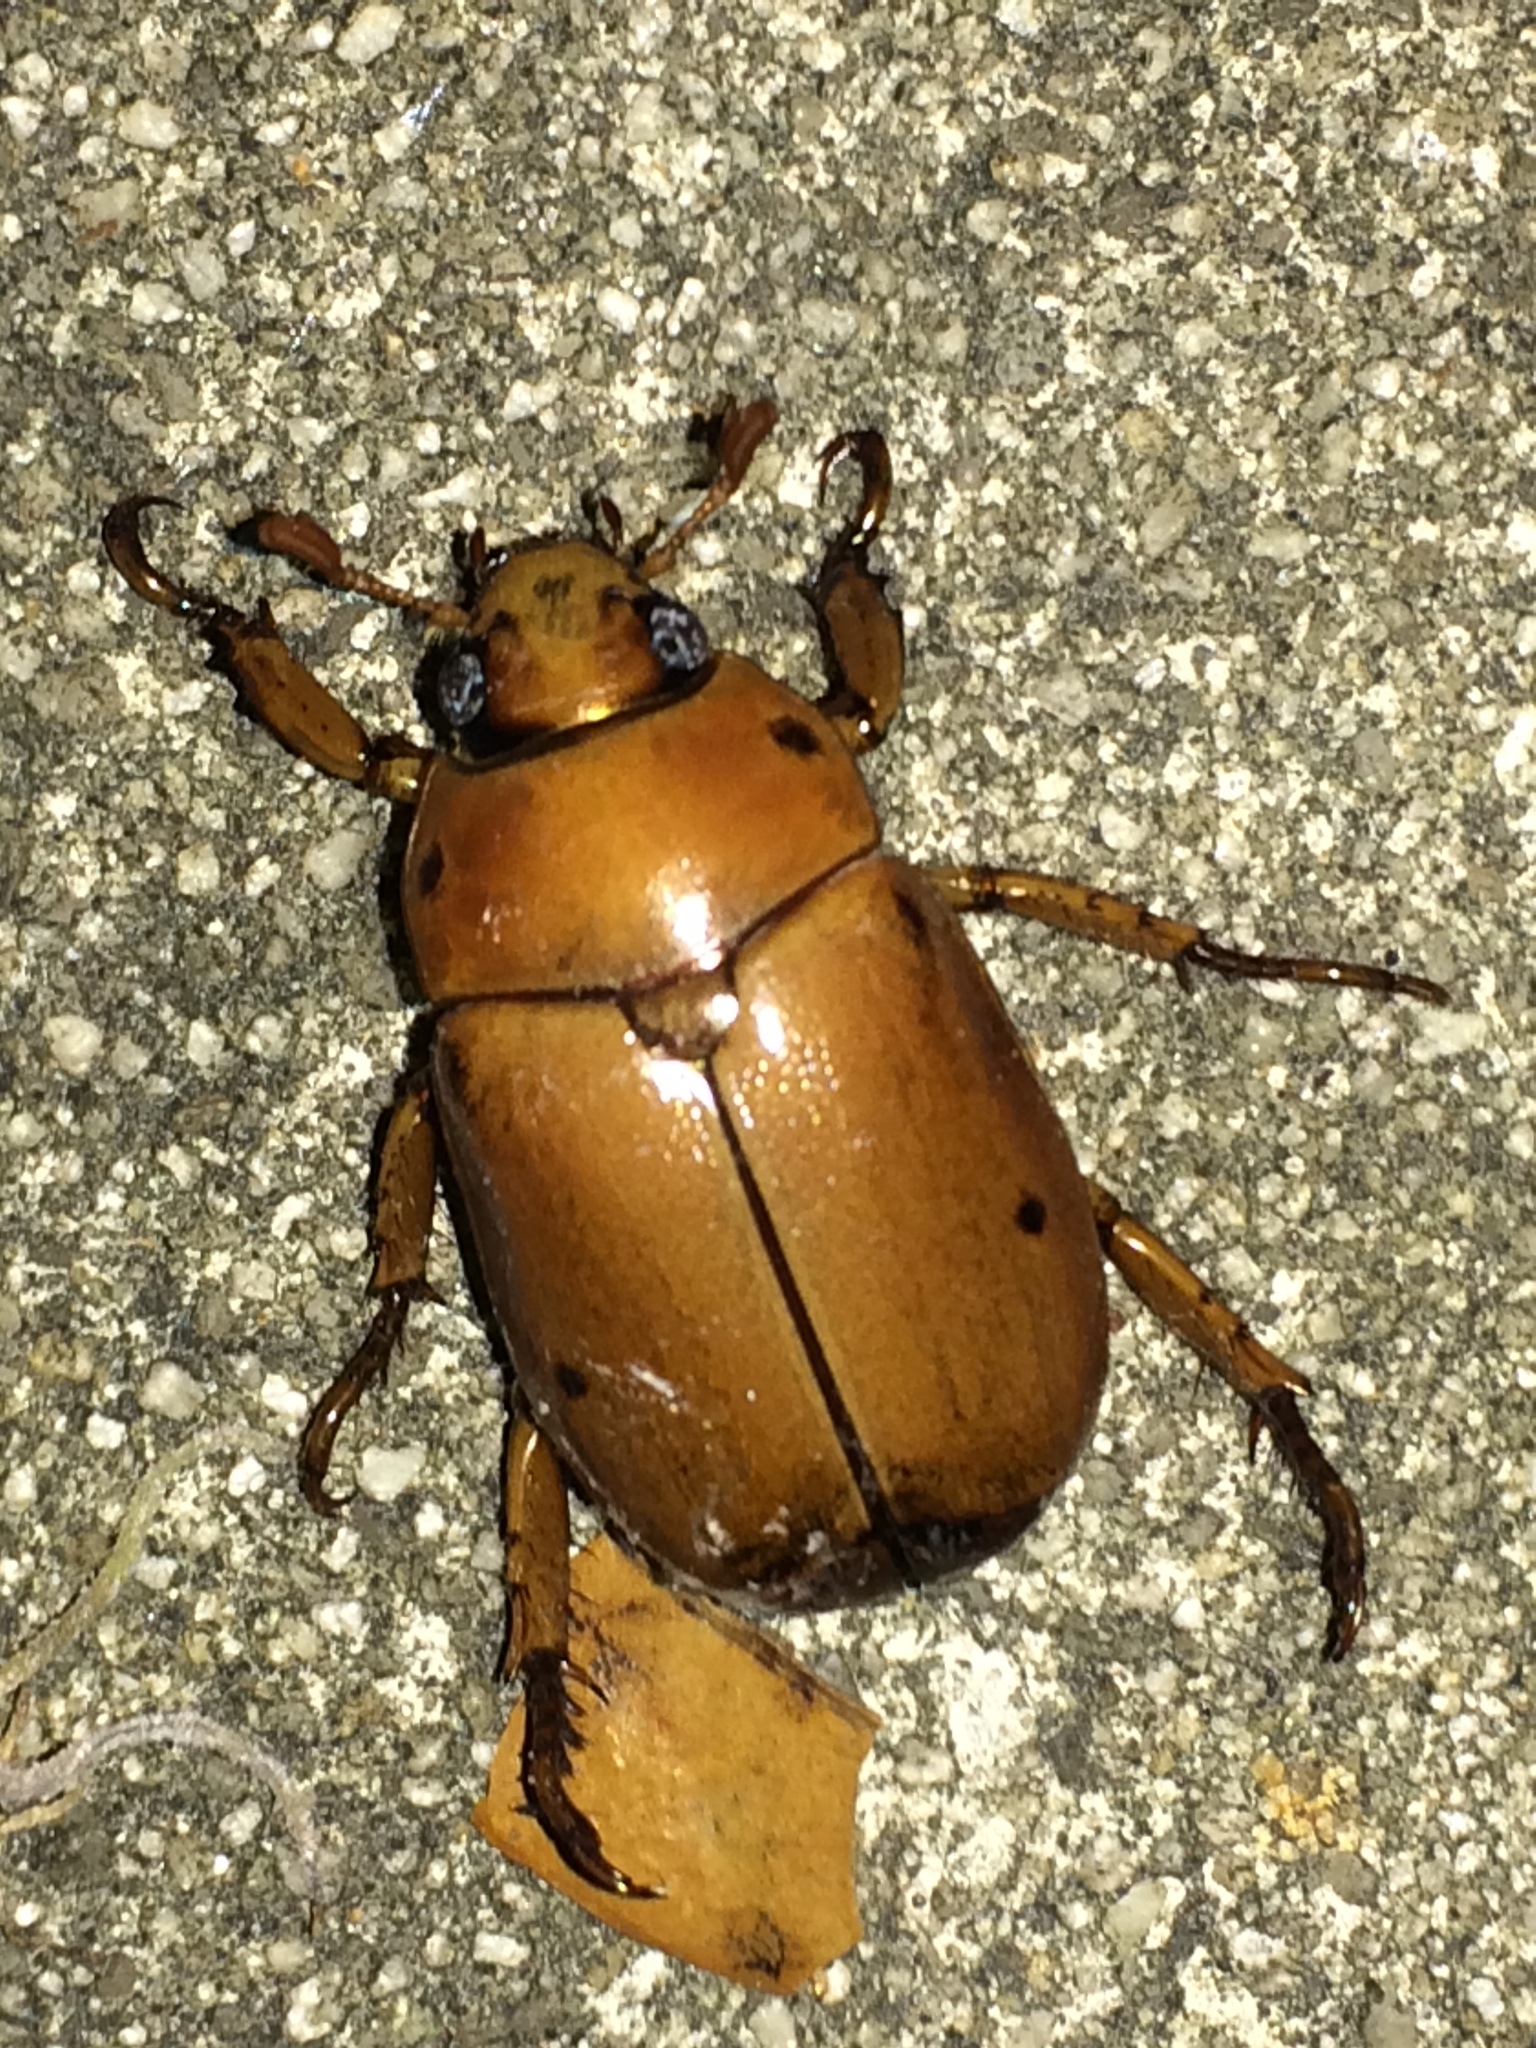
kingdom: Animalia
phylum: Arthropoda
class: Insecta
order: Coleoptera
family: Scarabaeidae
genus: Pelidnota
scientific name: Pelidnota punctata
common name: Grapevine beetle
